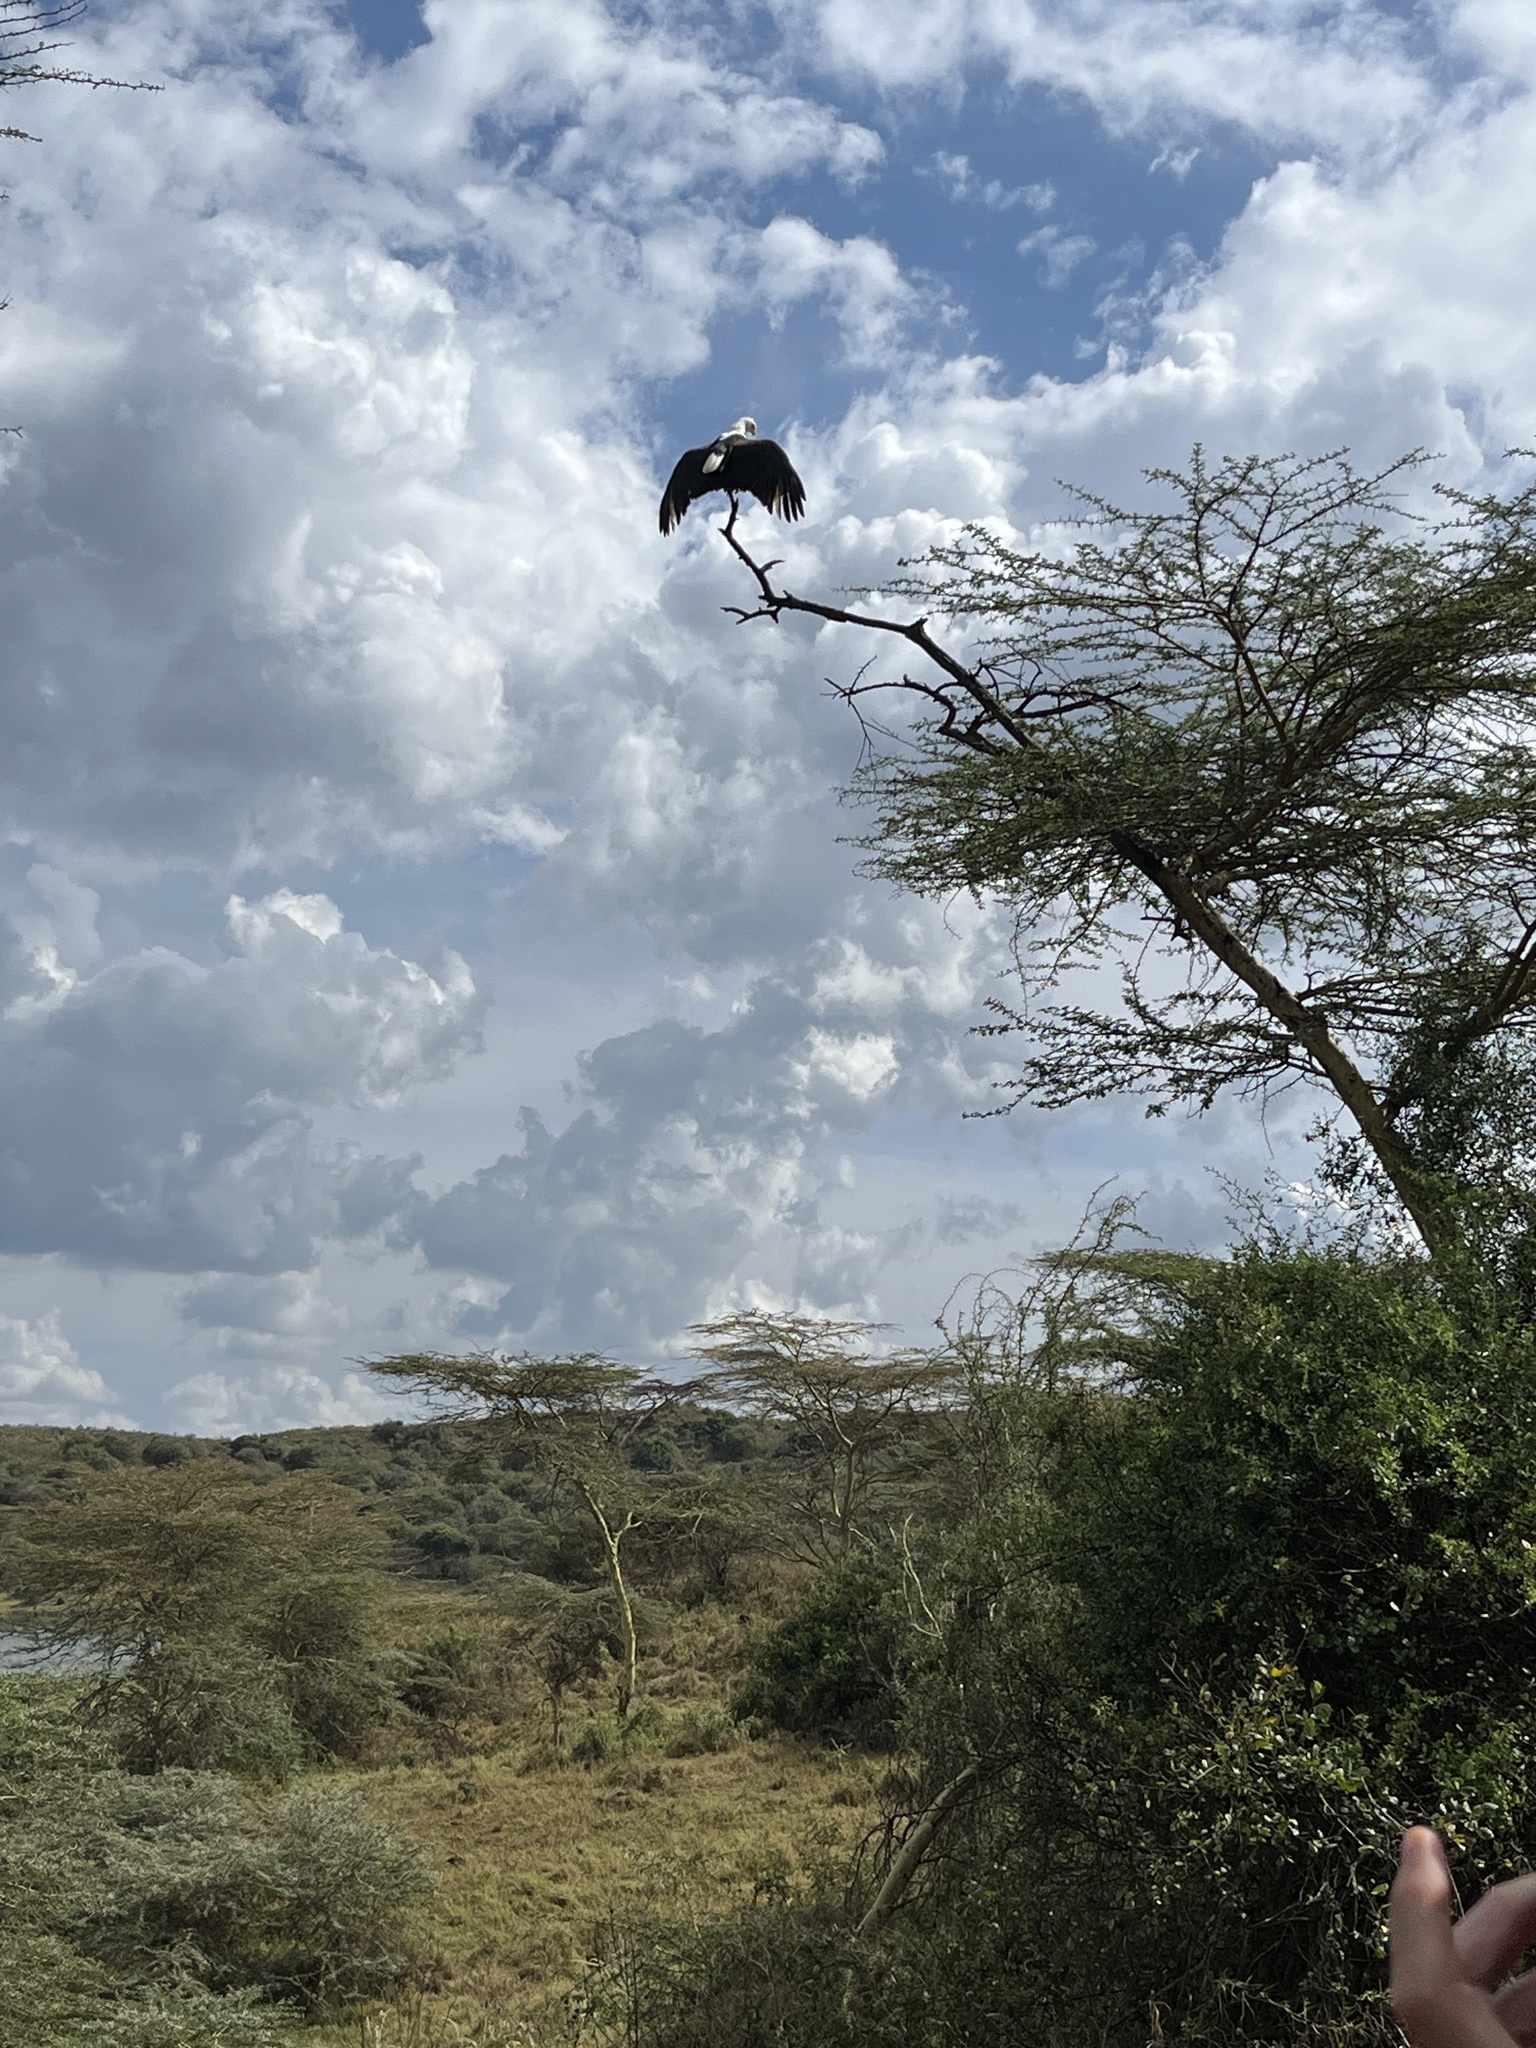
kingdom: Animalia
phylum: Chordata
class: Aves
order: Accipitriformes
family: Accipitridae
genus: Haliaeetus
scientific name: Haliaeetus vocifer
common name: African fish eagle
